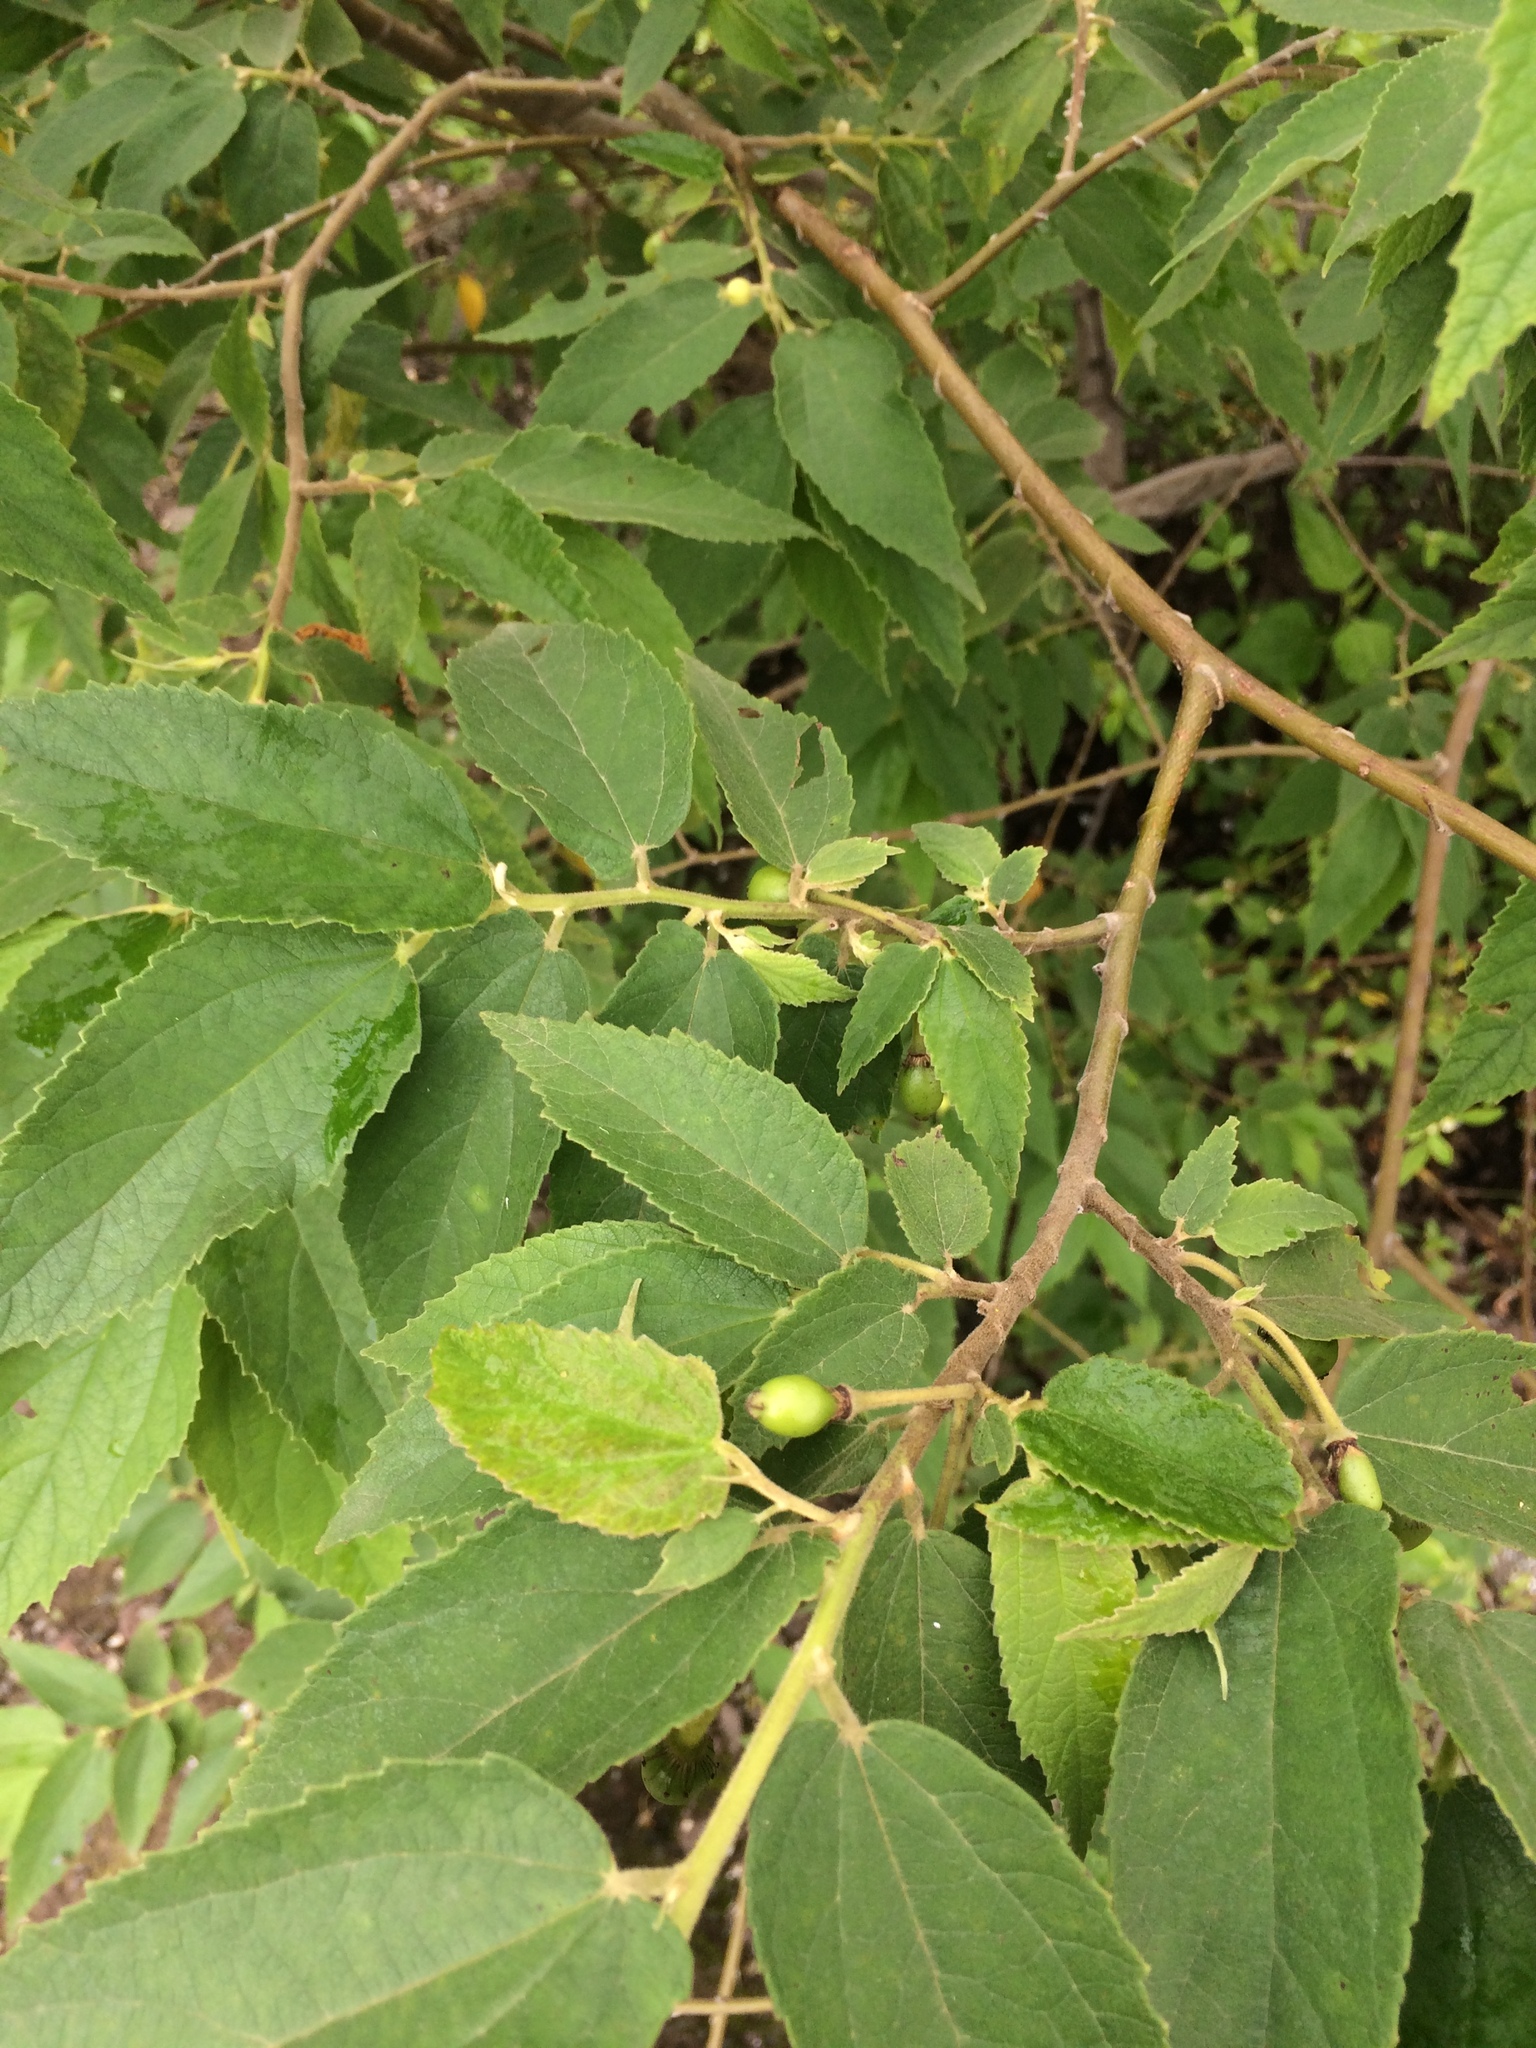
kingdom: Plantae
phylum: Tracheophyta
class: Magnoliopsida
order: Malvales
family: Muntingiaceae
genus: Muntingia
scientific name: Muntingia calabura
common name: Strawberrytree
